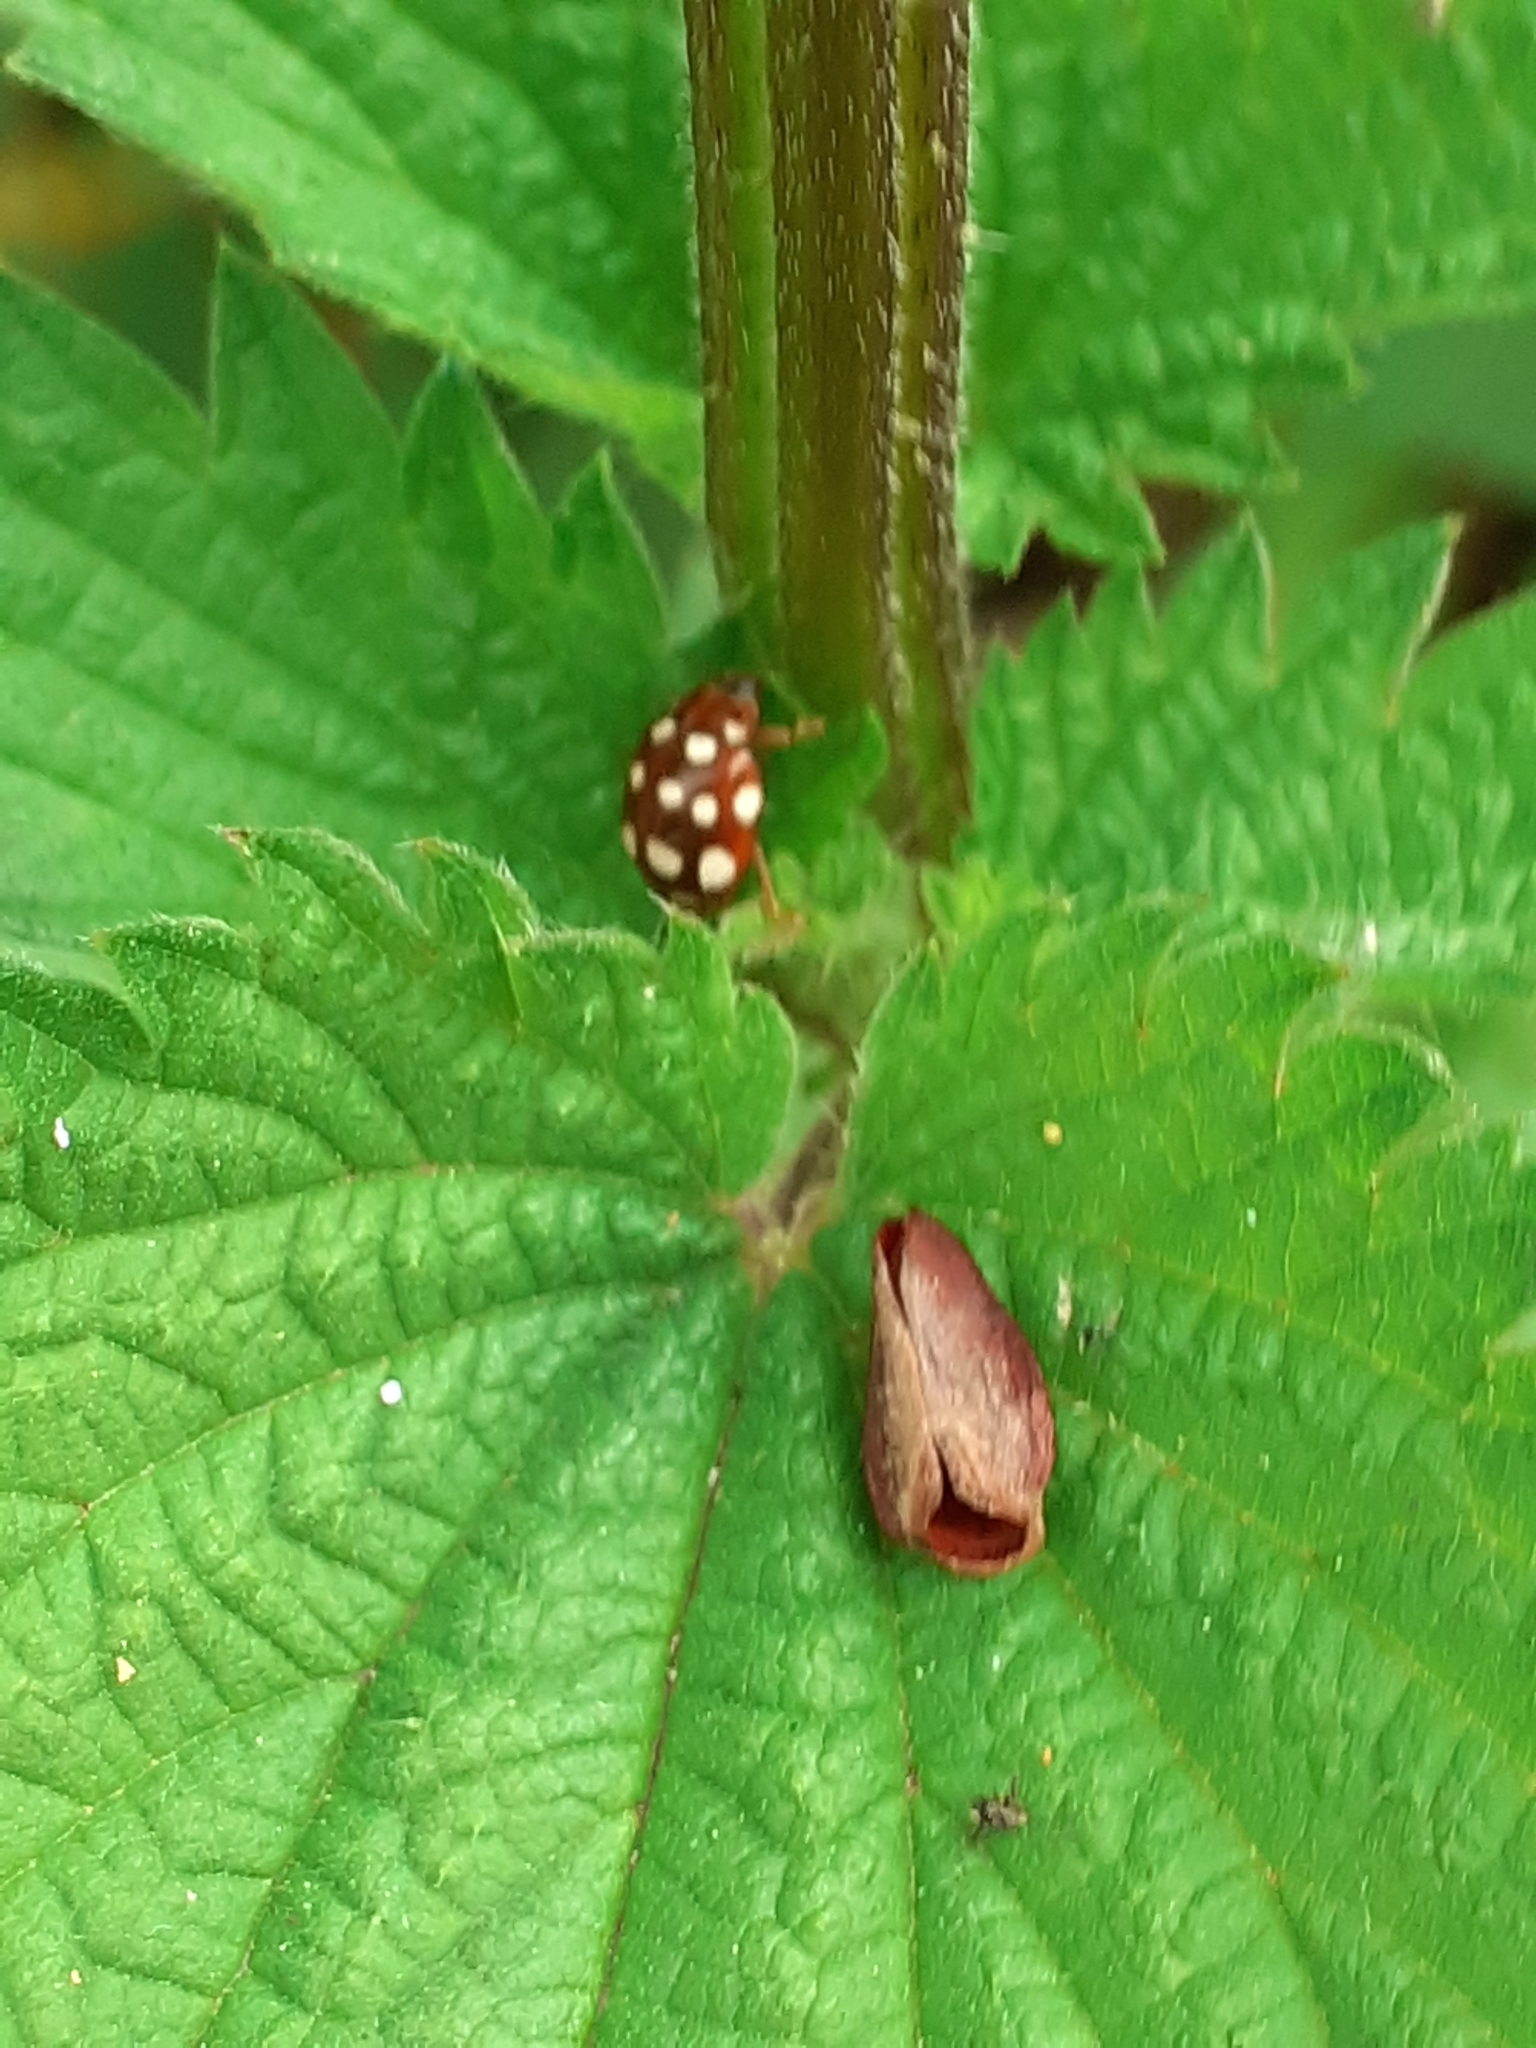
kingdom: Animalia
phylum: Arthropoda
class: Insecta
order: Coleoptera
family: Coccinellidae
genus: Calvia
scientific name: Calvia quatuordecimguttata
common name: Cream-spot ladybird
